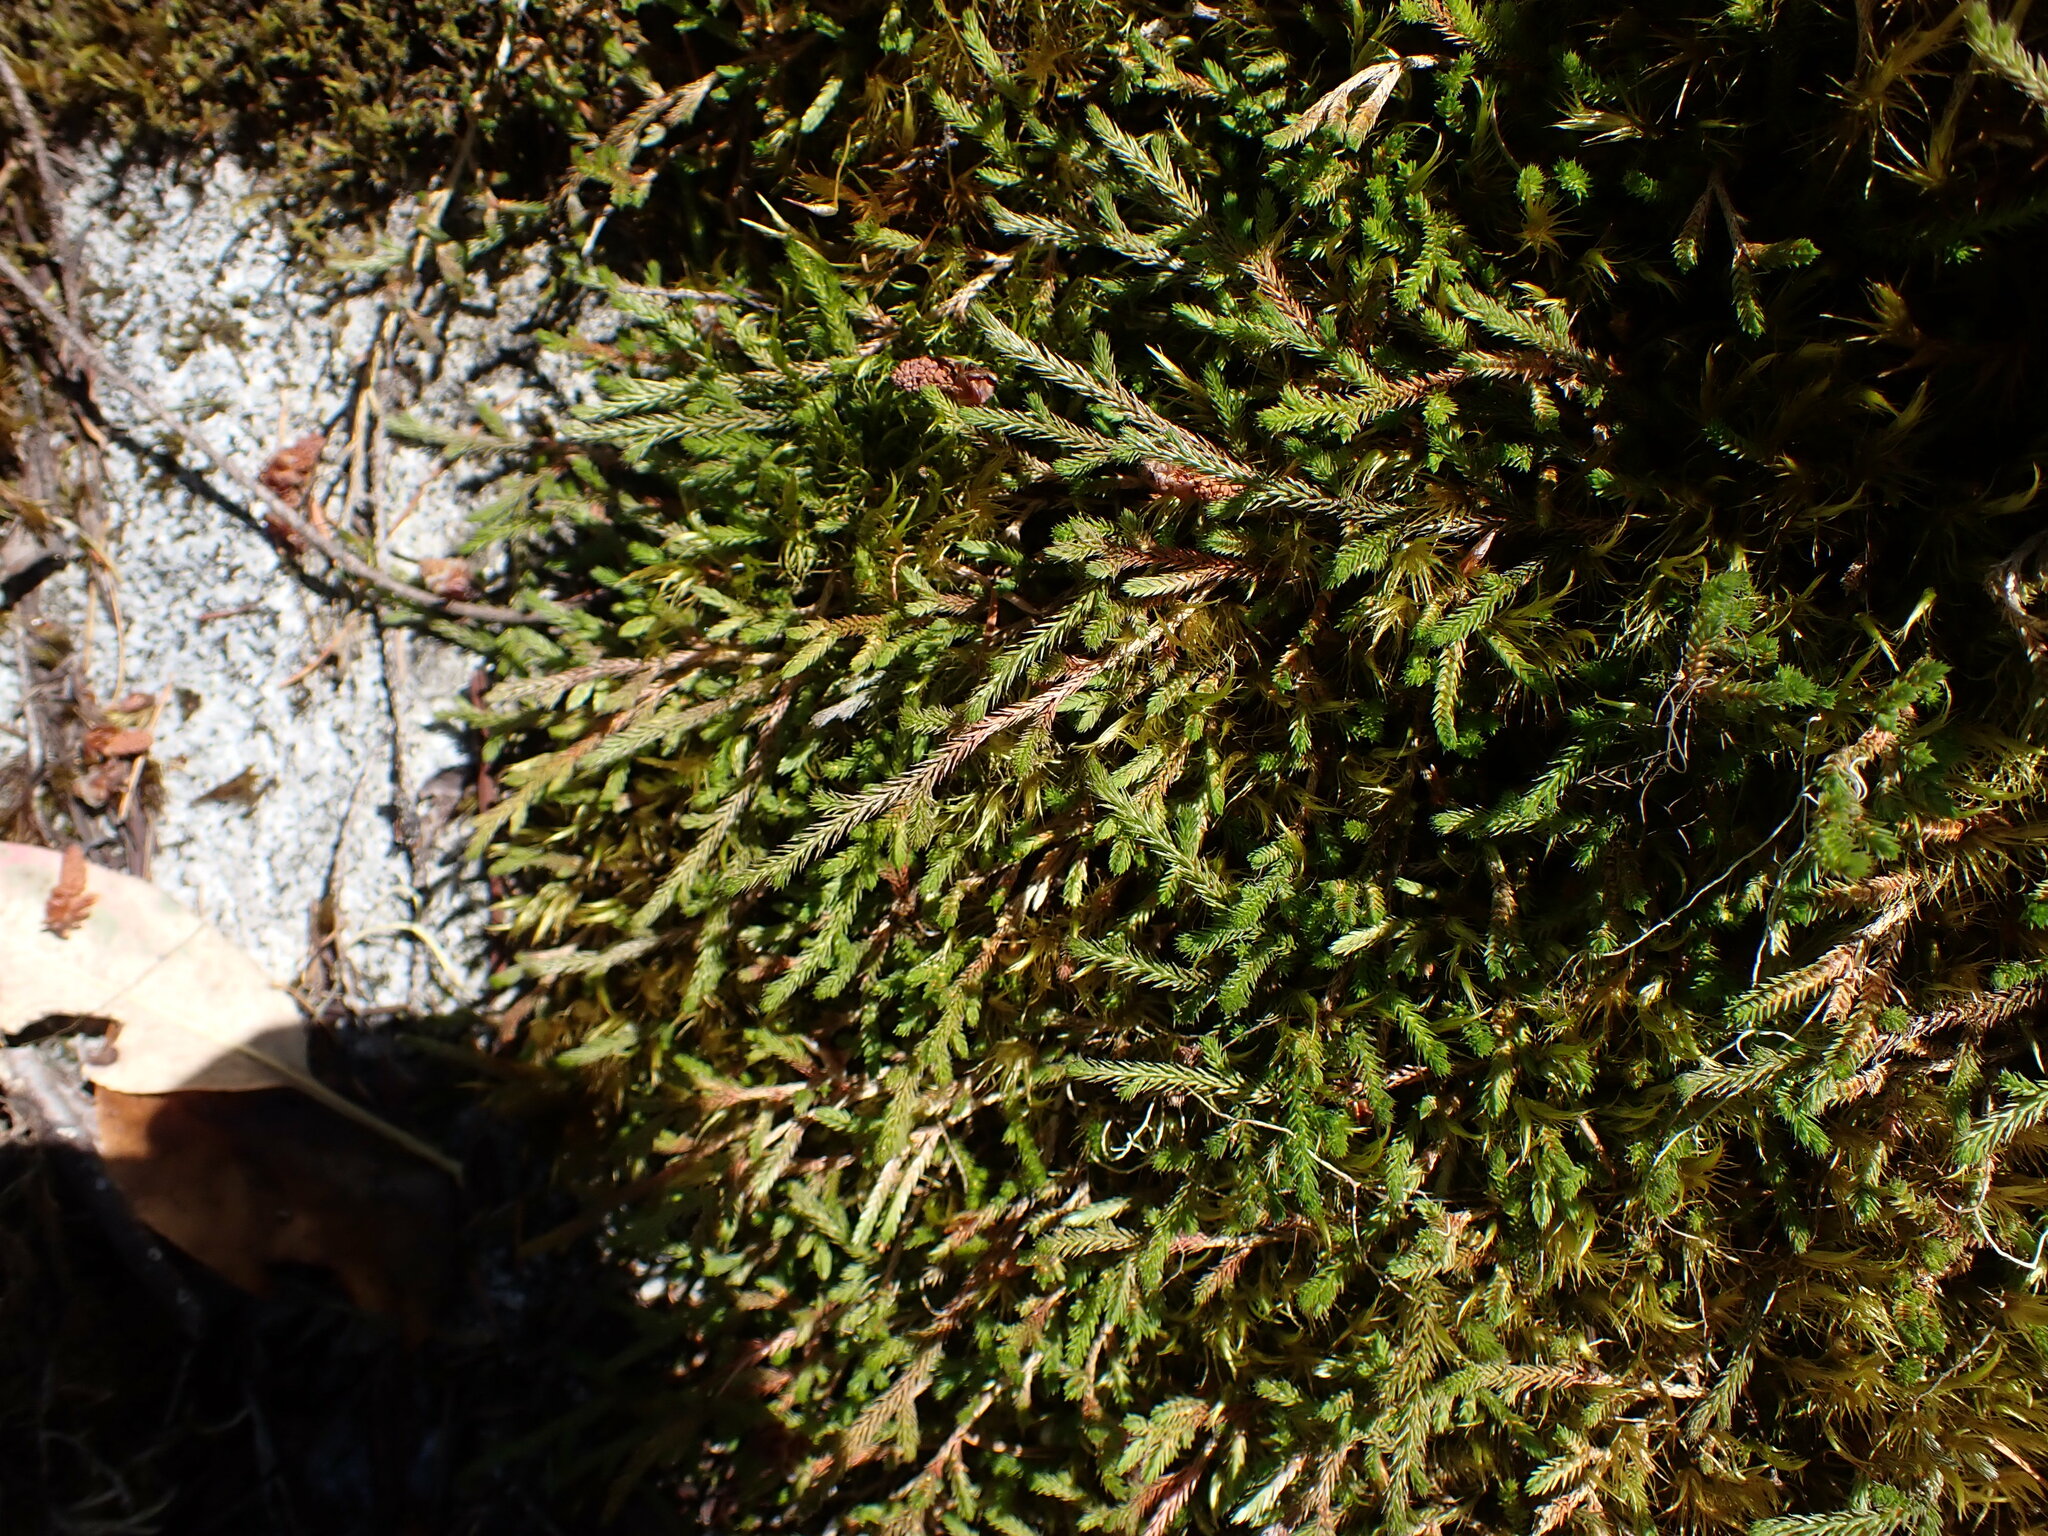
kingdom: Plantae
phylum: Tracheophyta
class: Lycopodiopsida
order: Selaginellales
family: Selaginellaceae
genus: Selaginella
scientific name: Selaginella wallacei
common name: Wallace's selaginella
